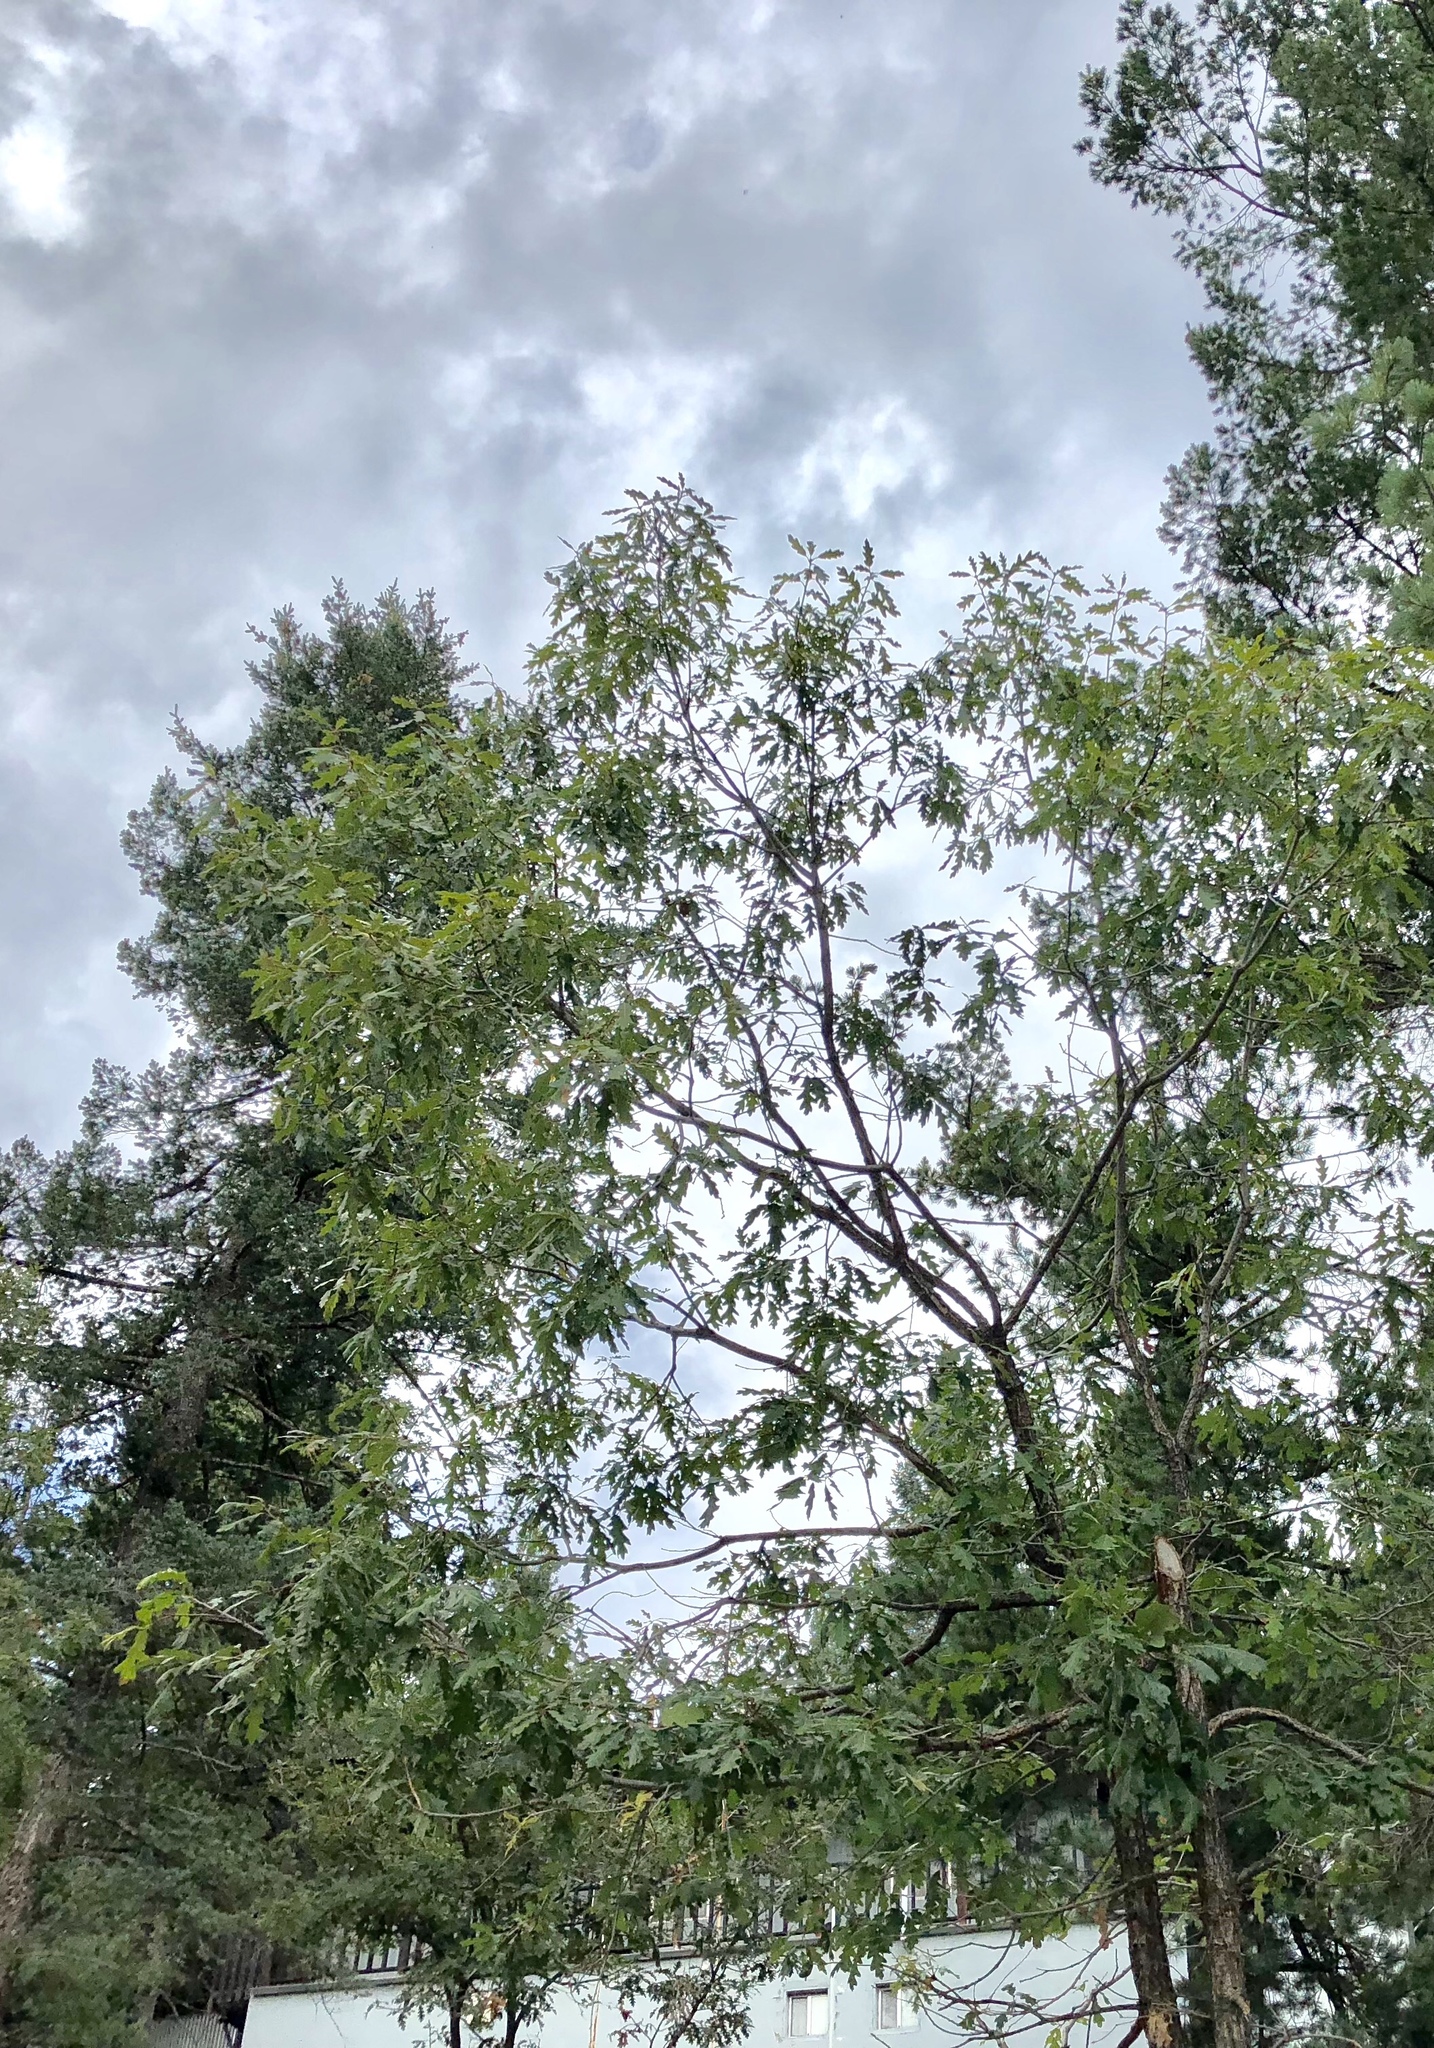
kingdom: Plantae
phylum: Tracheophyta
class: Magnoliopsida
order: Fabales
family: Fabaceae
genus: Robinia
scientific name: Robinia neomexicana
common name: New mexico locust
